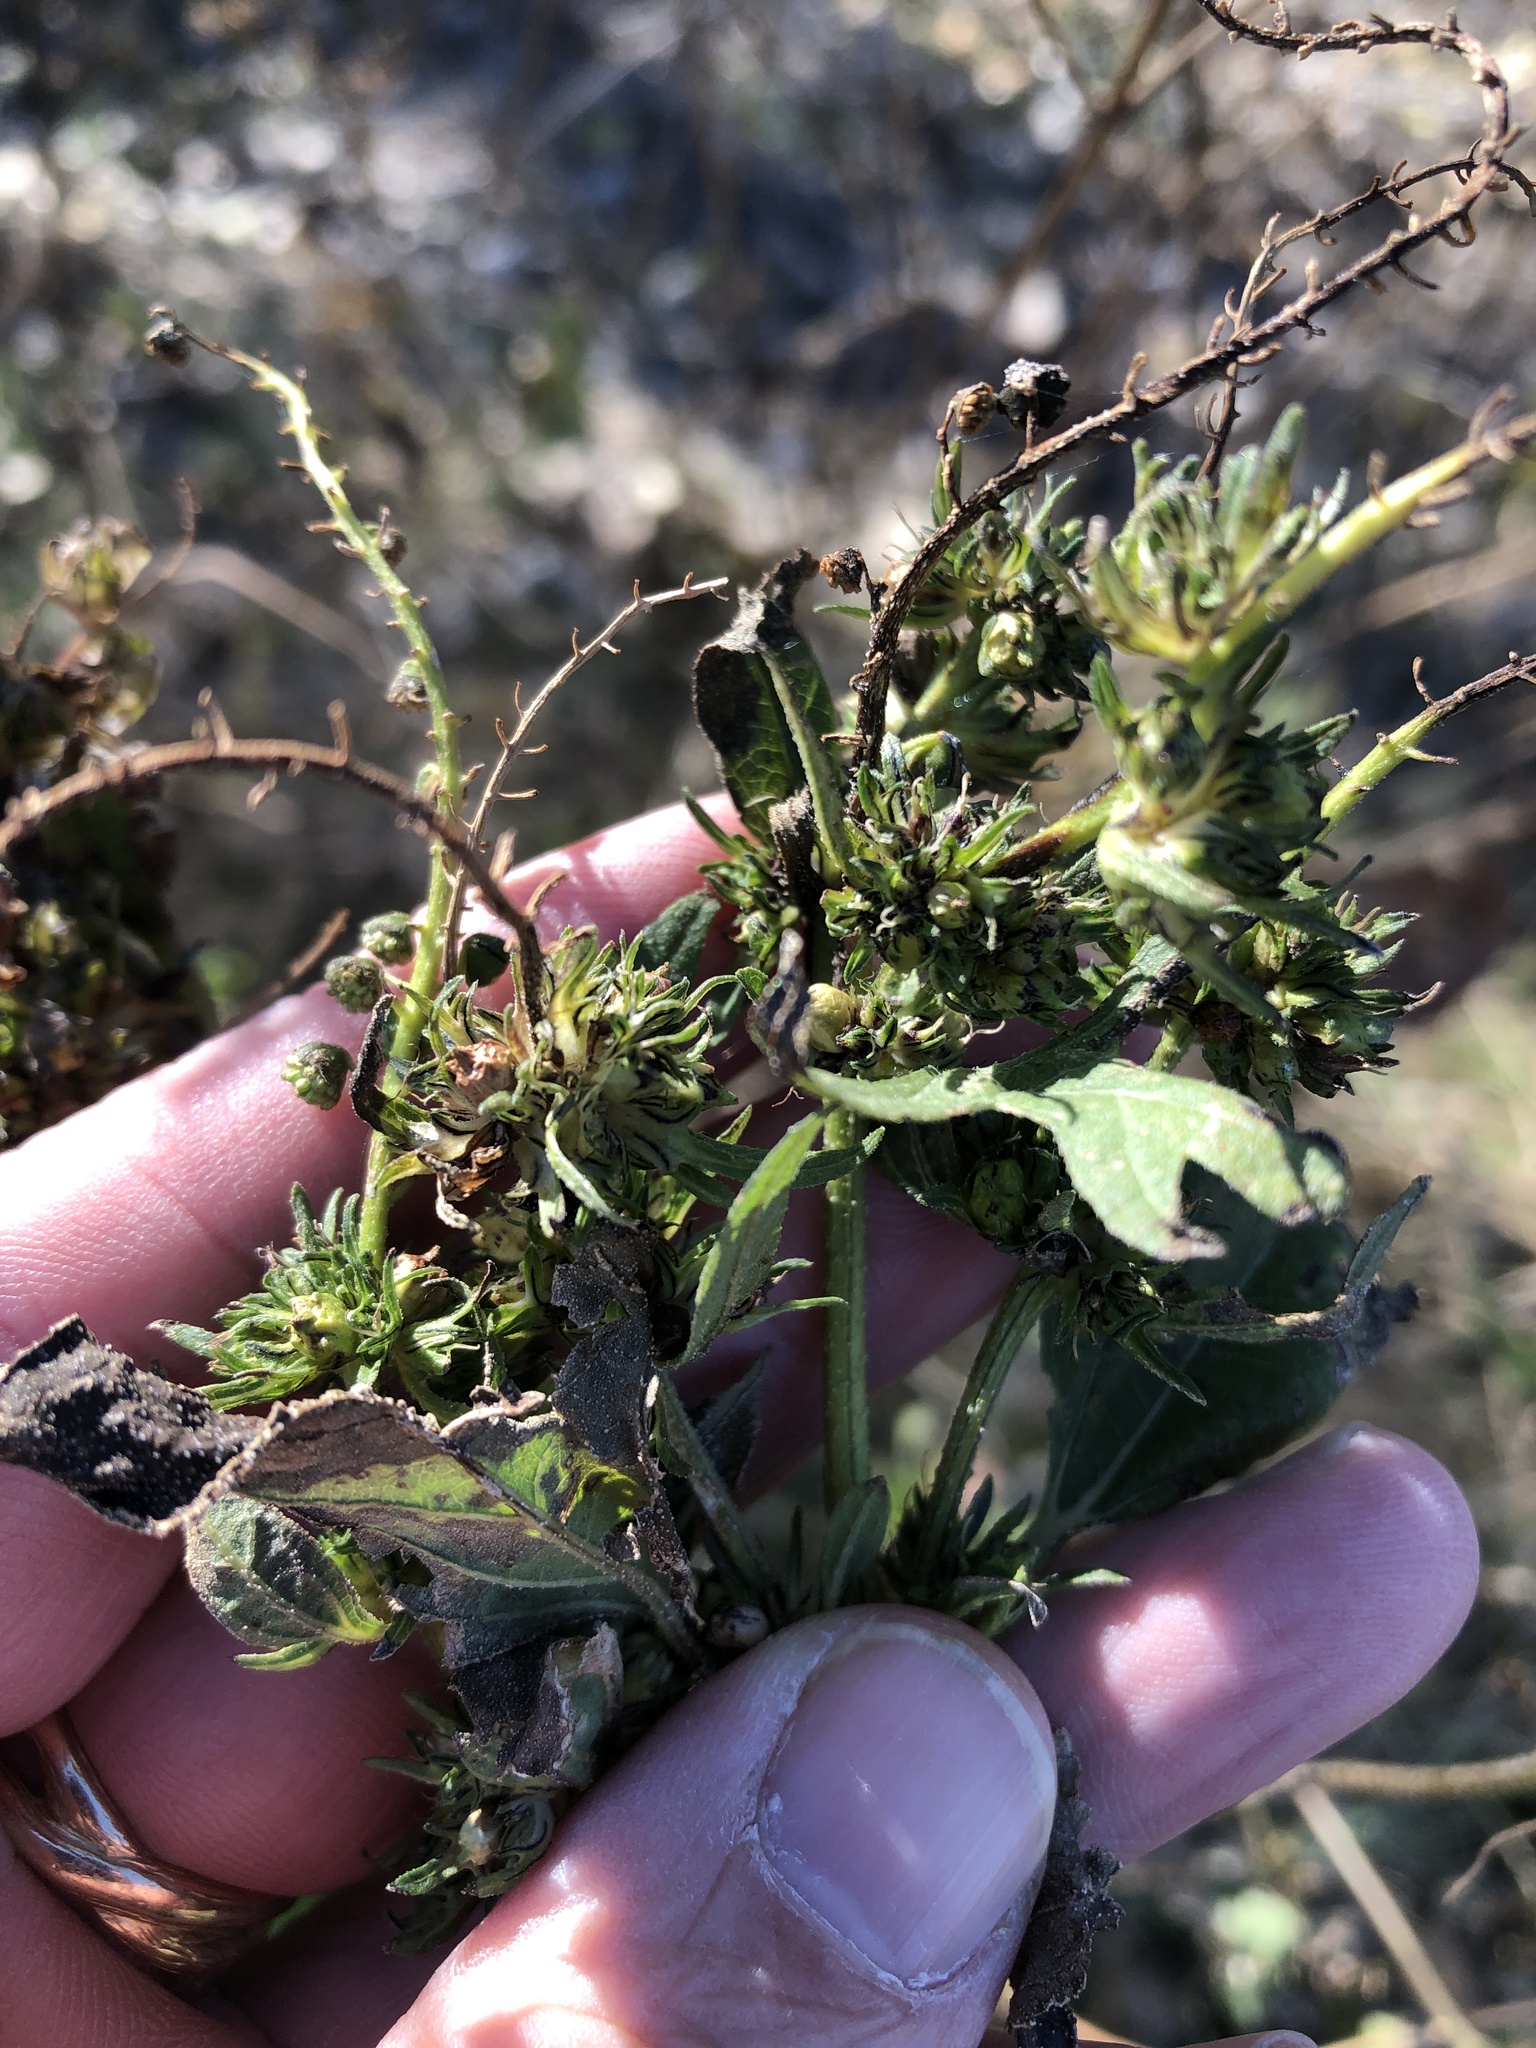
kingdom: Plantae
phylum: Tracheophyta
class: Magnoliopsida
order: Asterales
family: Asteraceae
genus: Ambrosia
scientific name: Ambrosia trifida
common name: Giant ragweed
